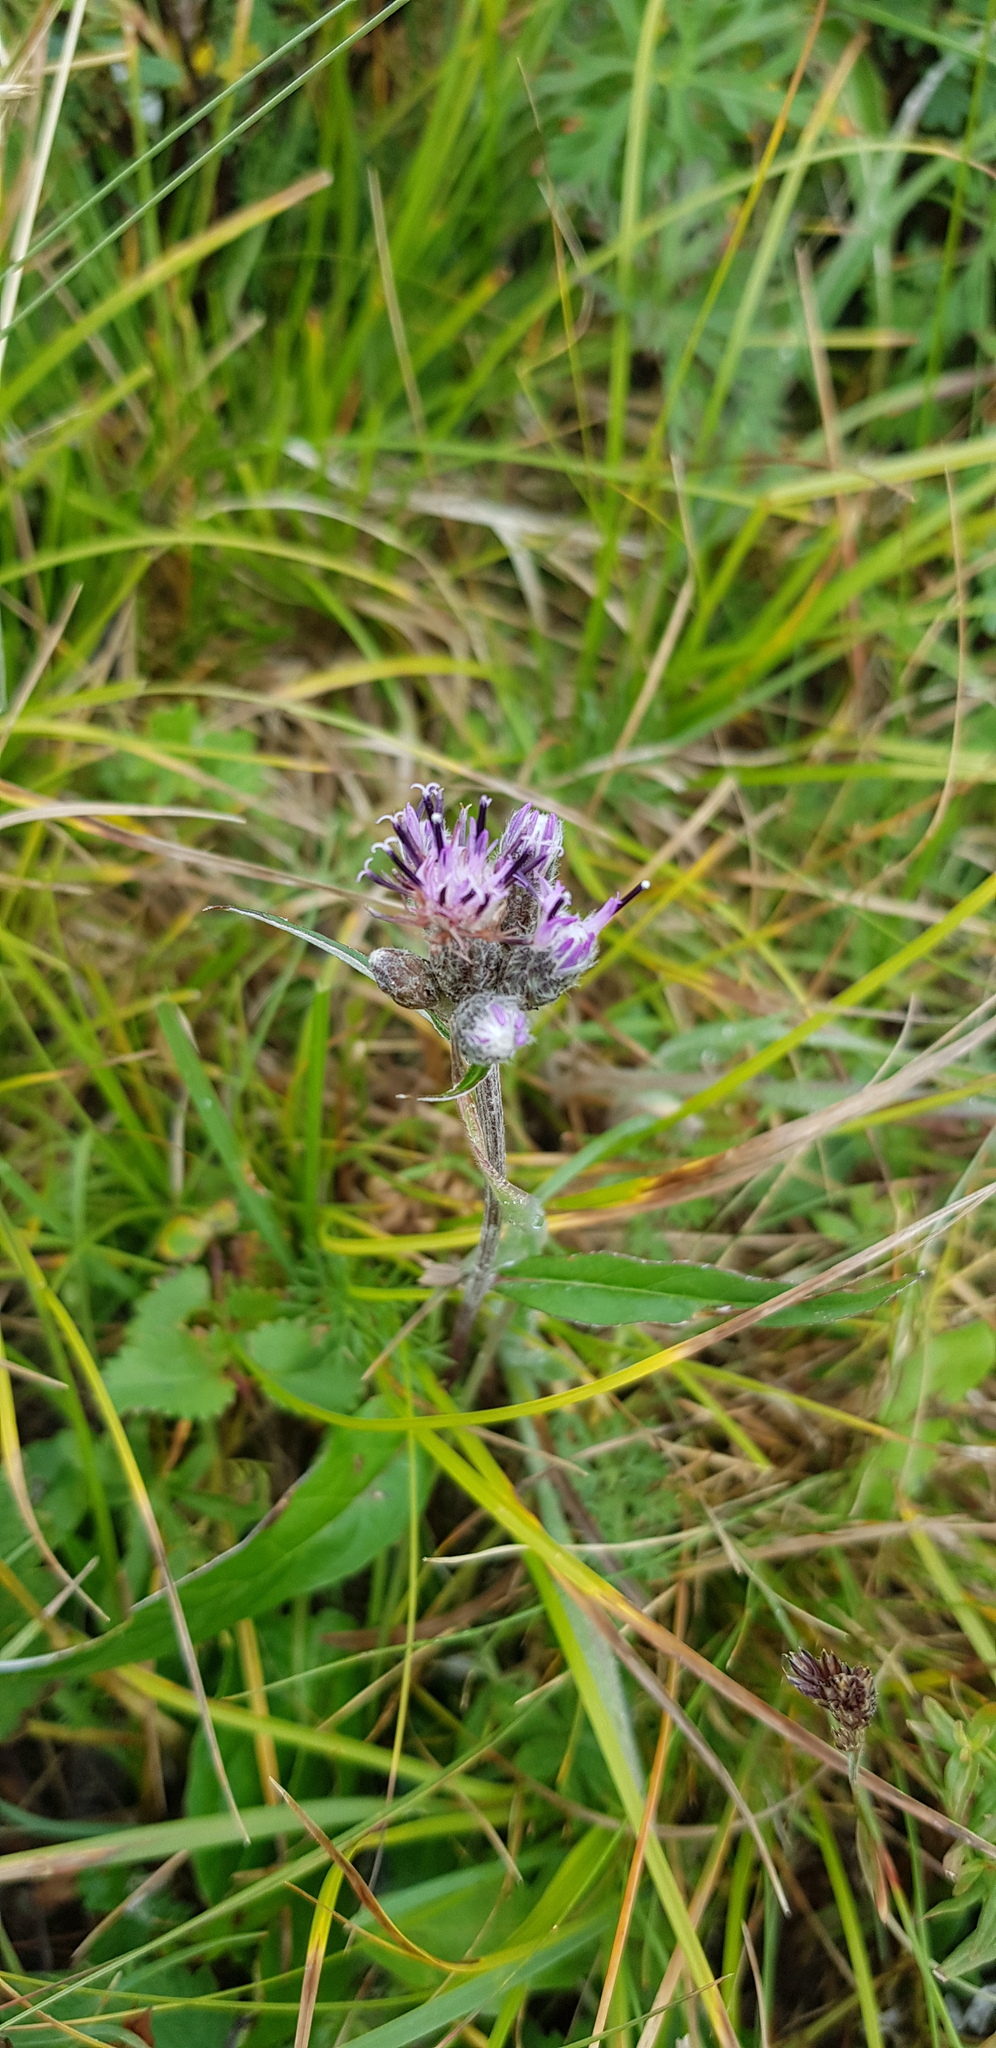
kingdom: Plantae
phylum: Tracheophyta
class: Magnoliopsida
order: Asterales
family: Asteraceae
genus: Saussurea
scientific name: Saussurea alpina
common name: Alpine saw-wort
